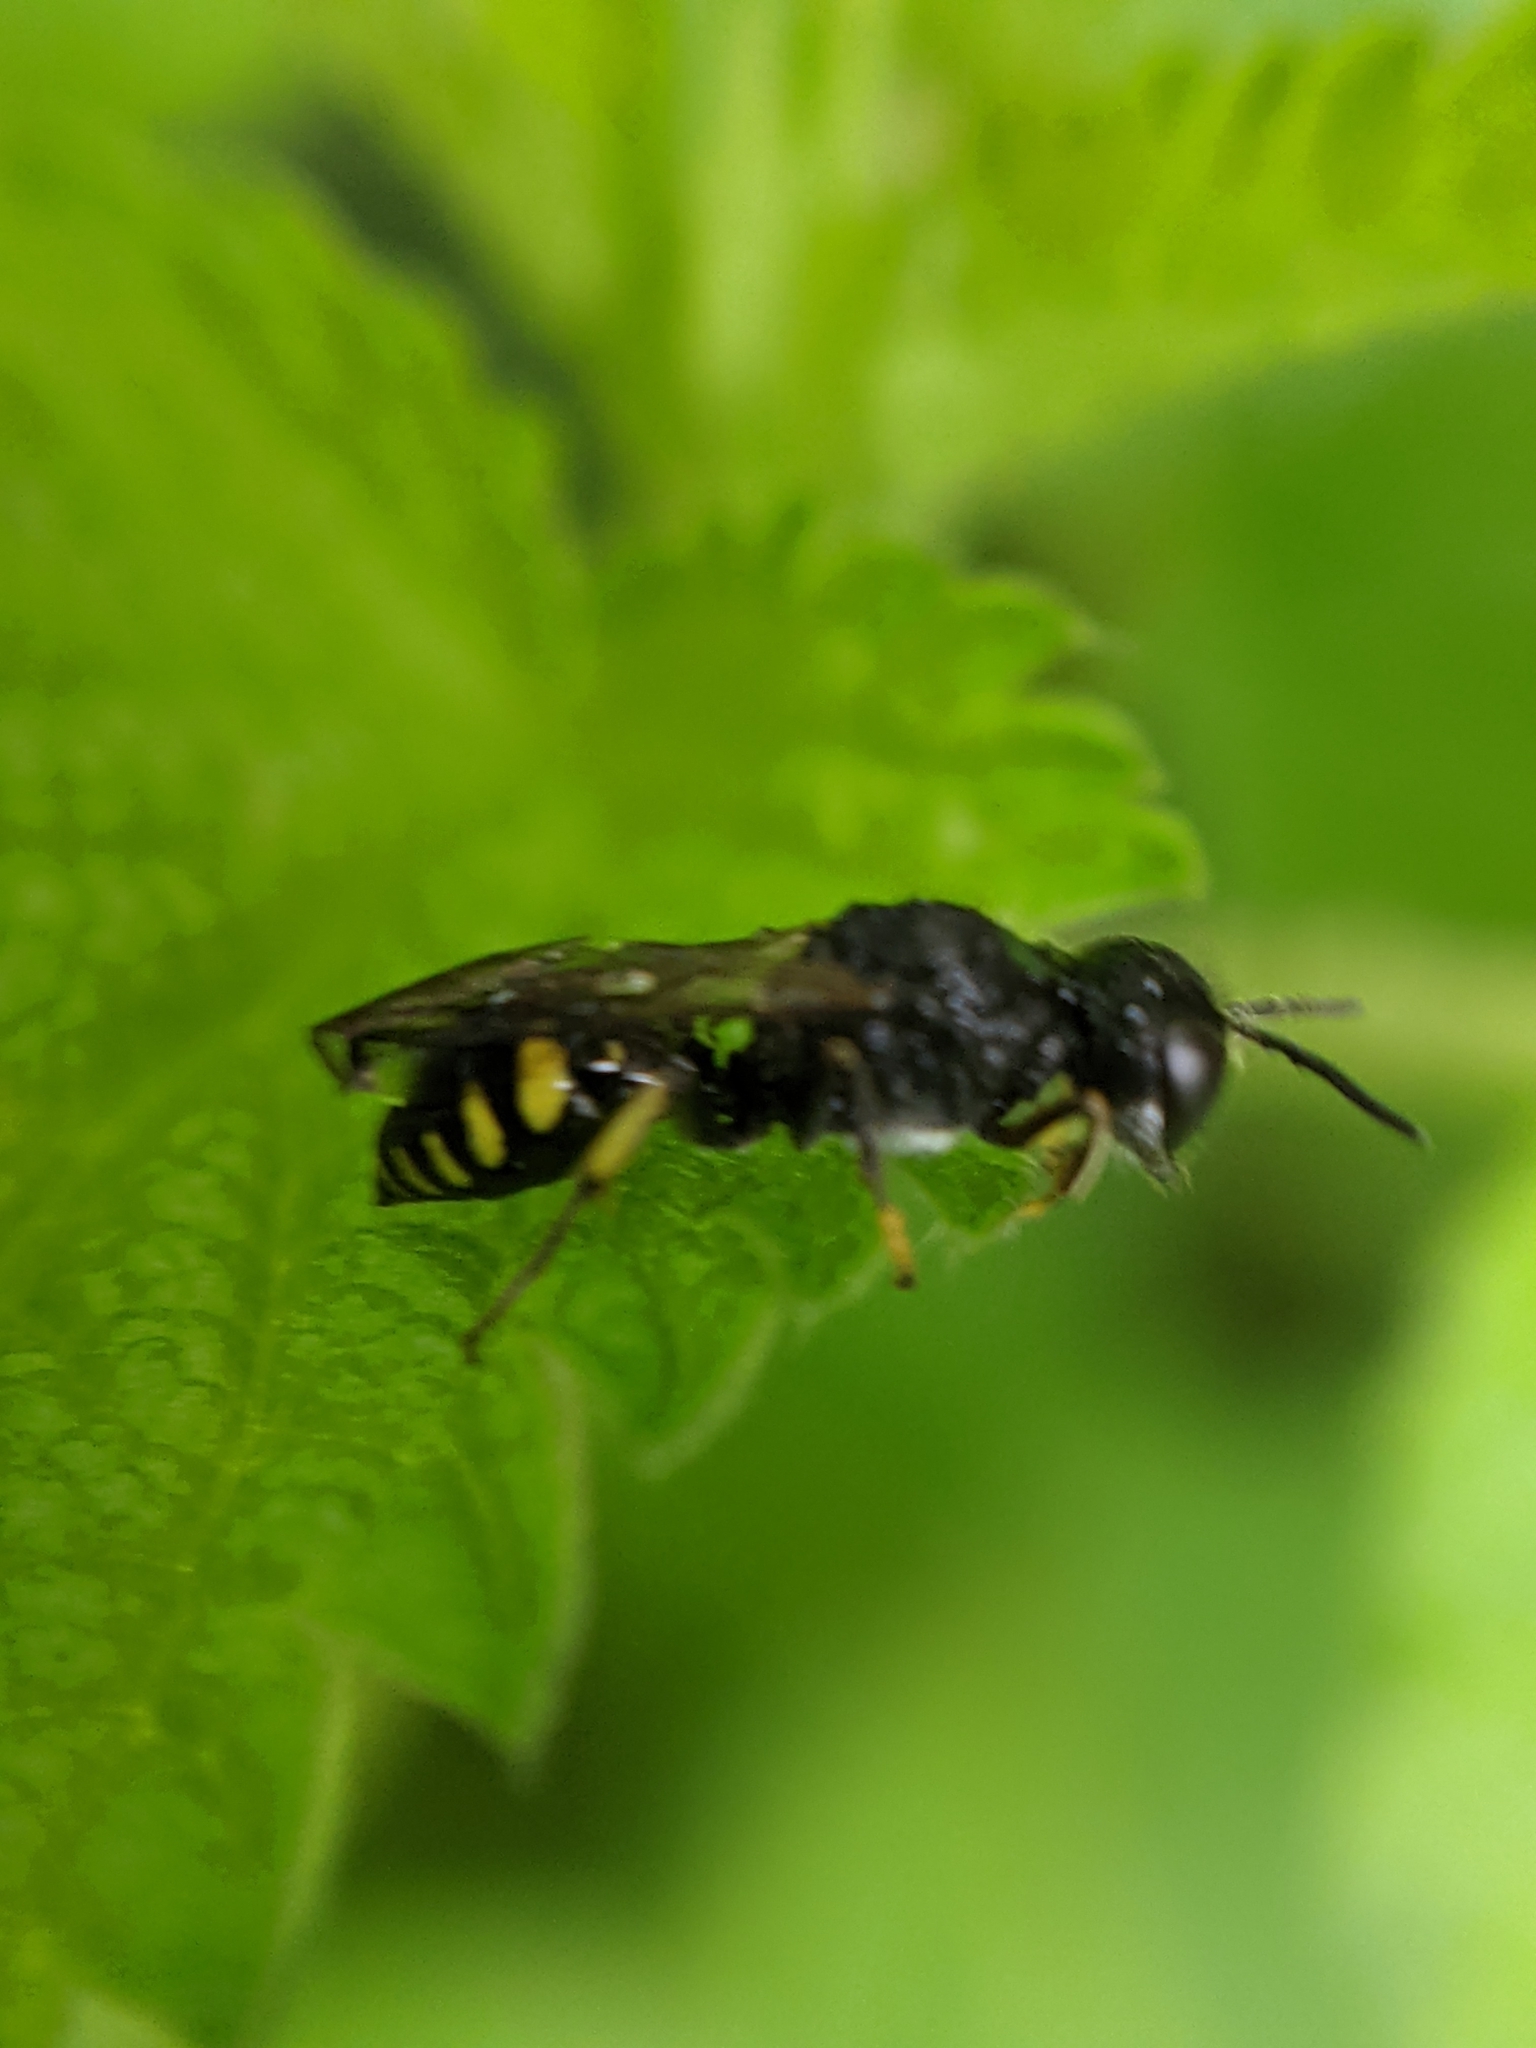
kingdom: Animalia
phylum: Arthropoda
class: Insecta
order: Hymenoptera
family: Crabronidae
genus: Ectemnius
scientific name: Ectemnius lapidarius
